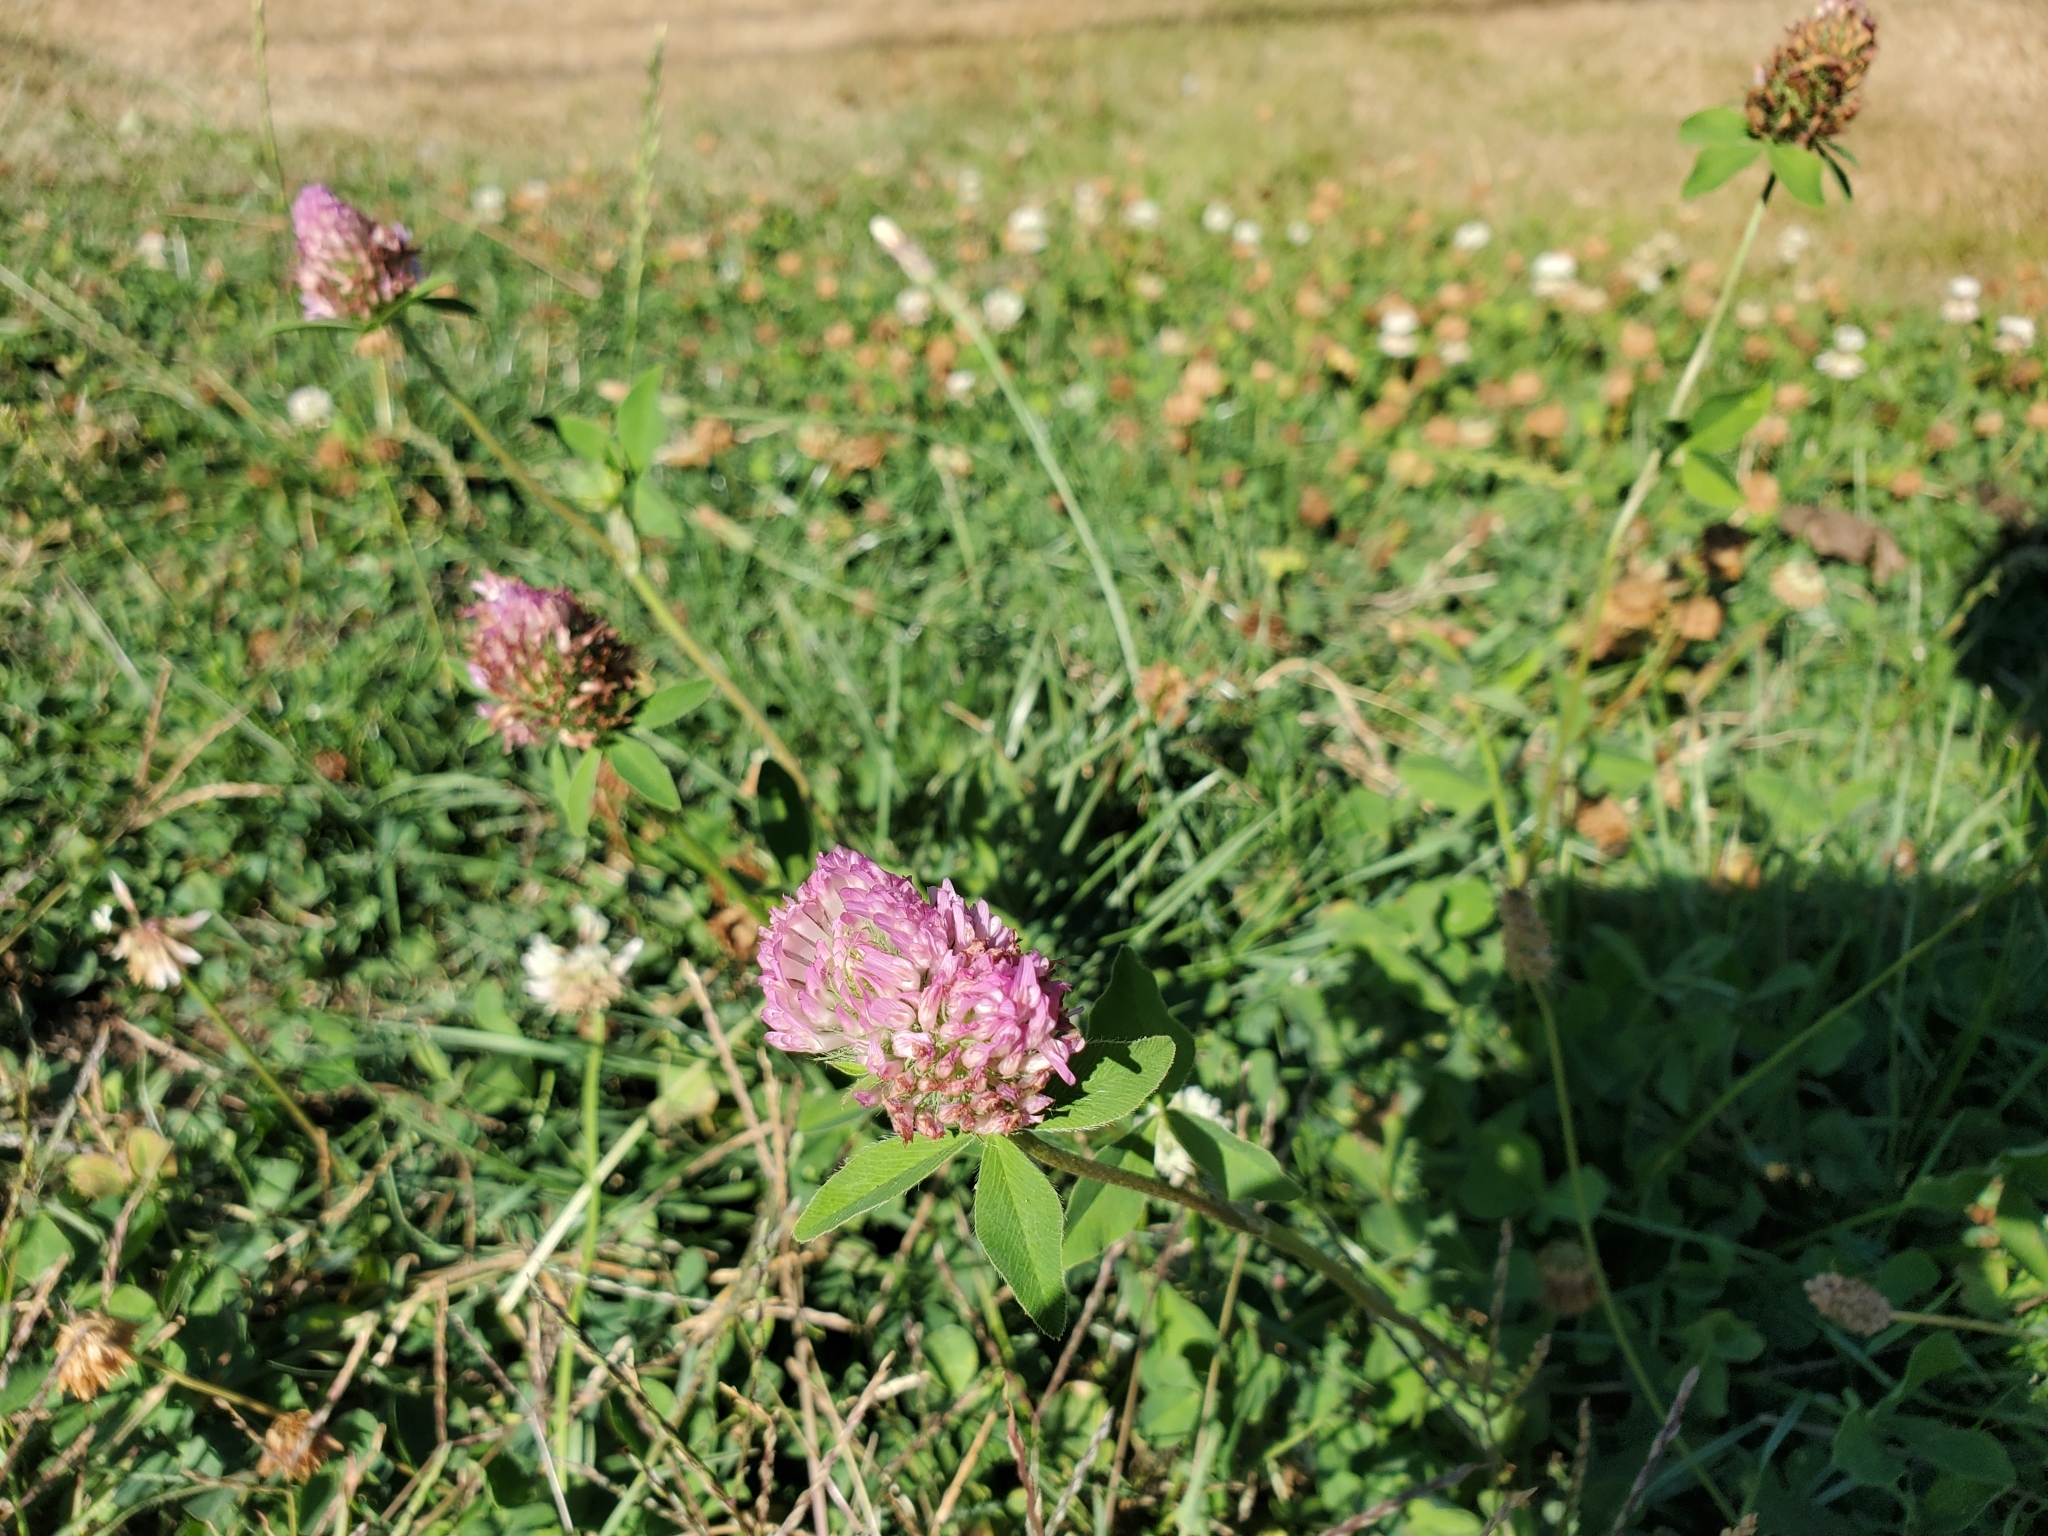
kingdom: Plantae
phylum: Tracheophyta
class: Magnoliopsida
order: Fabales
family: Fabaceae
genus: Trifolium
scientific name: Trifolium pratense
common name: Red clover
